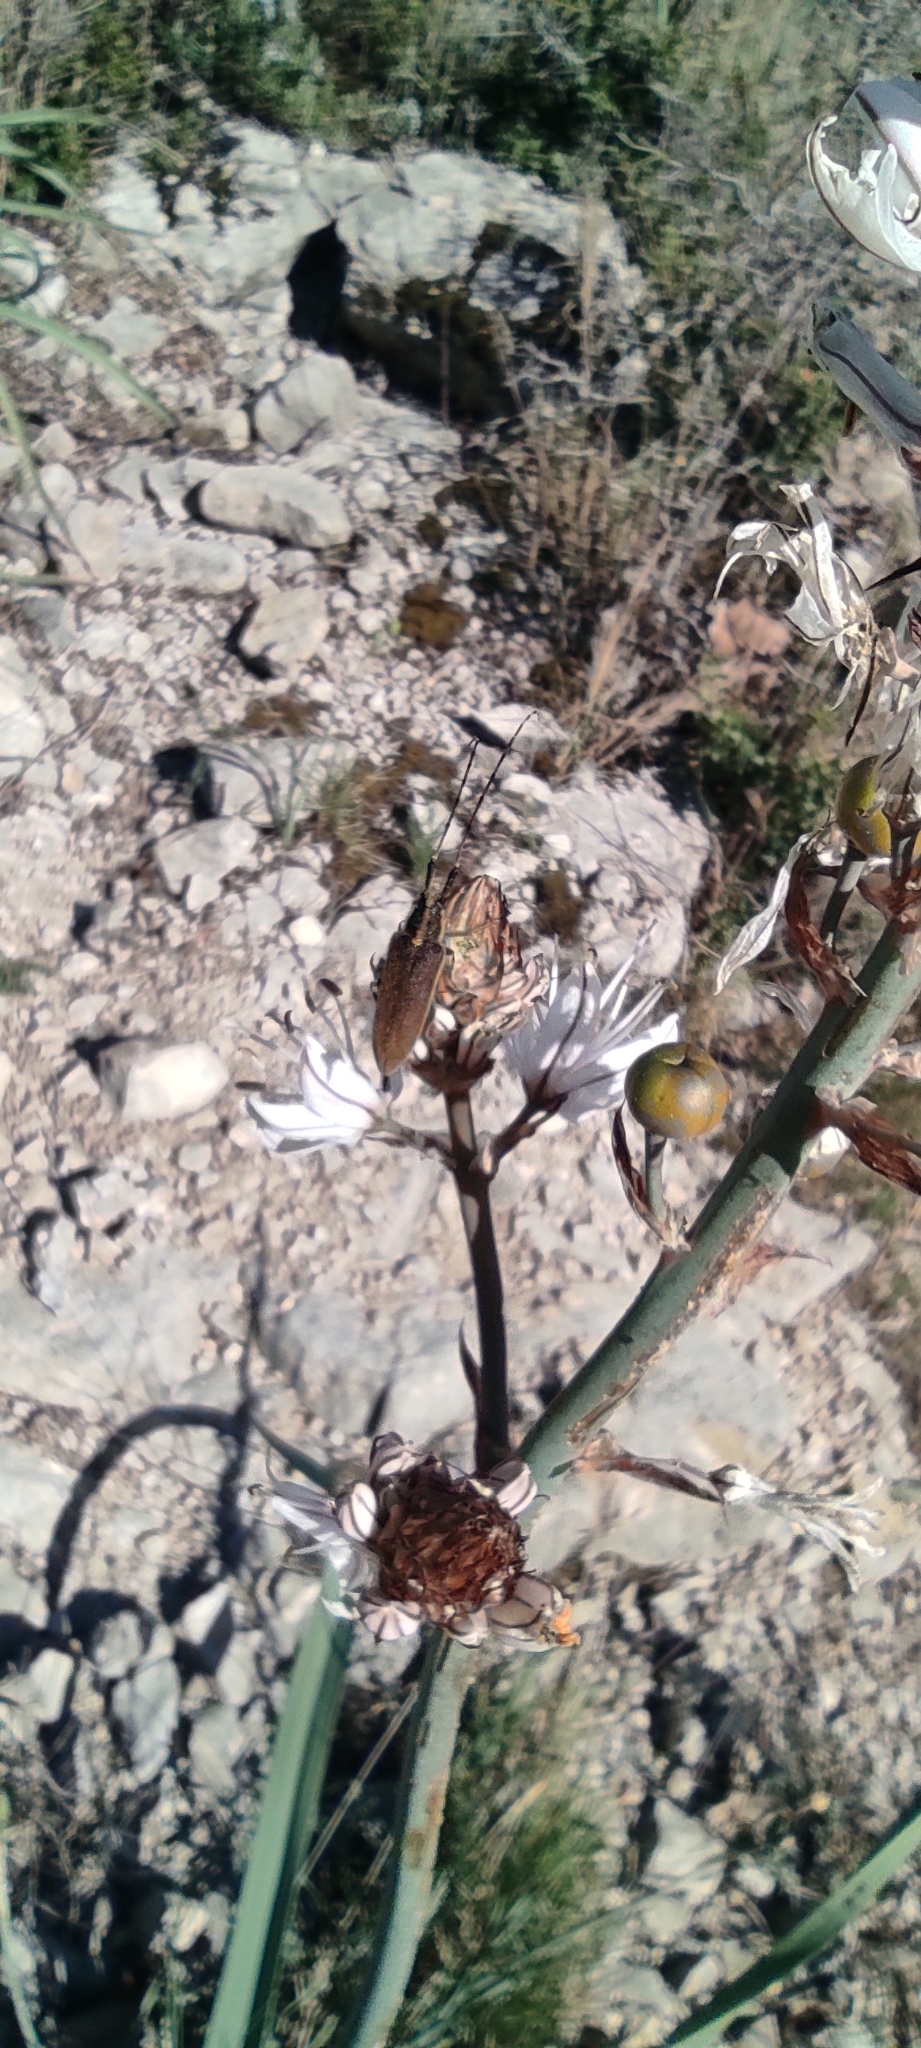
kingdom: Animalia
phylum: Arthropoda
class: Insecta
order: Coleoptera
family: Cerambycidae
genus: Agapanthia
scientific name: Agapanthia asphodeli
